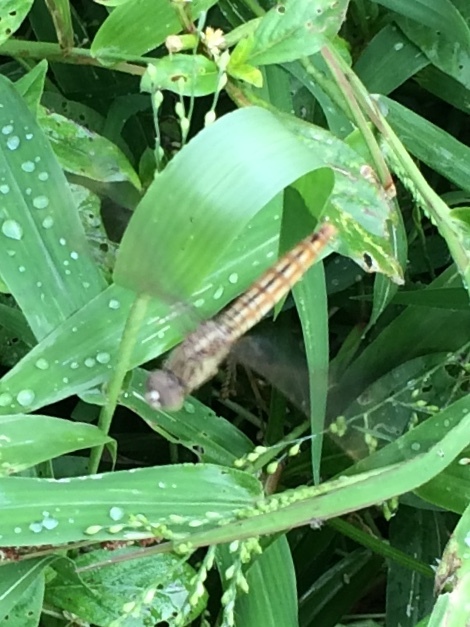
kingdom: Animalia
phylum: Arthropoda
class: Insecta
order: Odonata
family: Libellulidae
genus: Brachythemis
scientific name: Brachythemis contaminata
